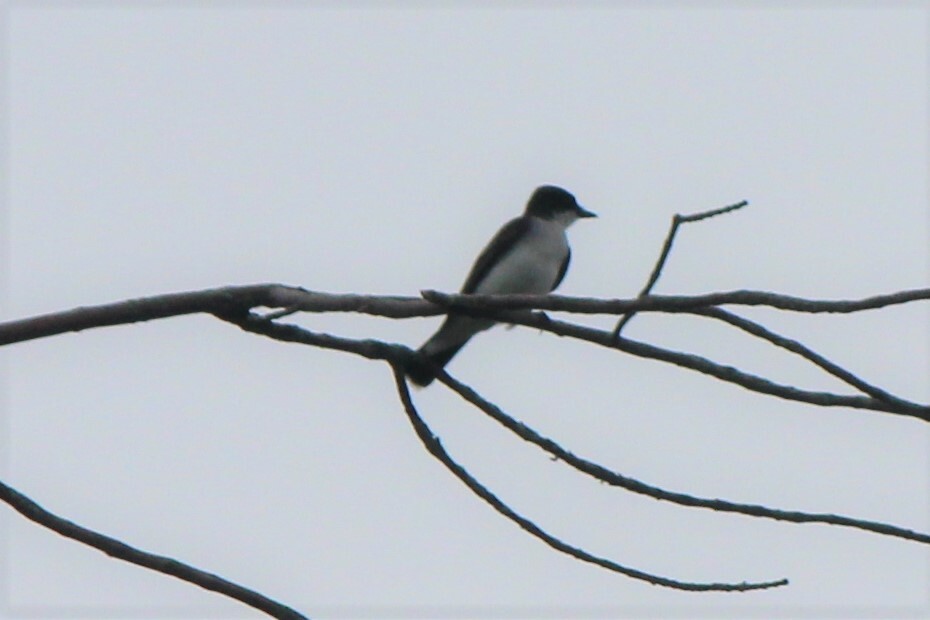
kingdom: Animalia
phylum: Chordata
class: Aves
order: Passeriformes
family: Tyrannidae
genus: Tyrannus
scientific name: Tyrannus tyrannus
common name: Eastern kingbird
